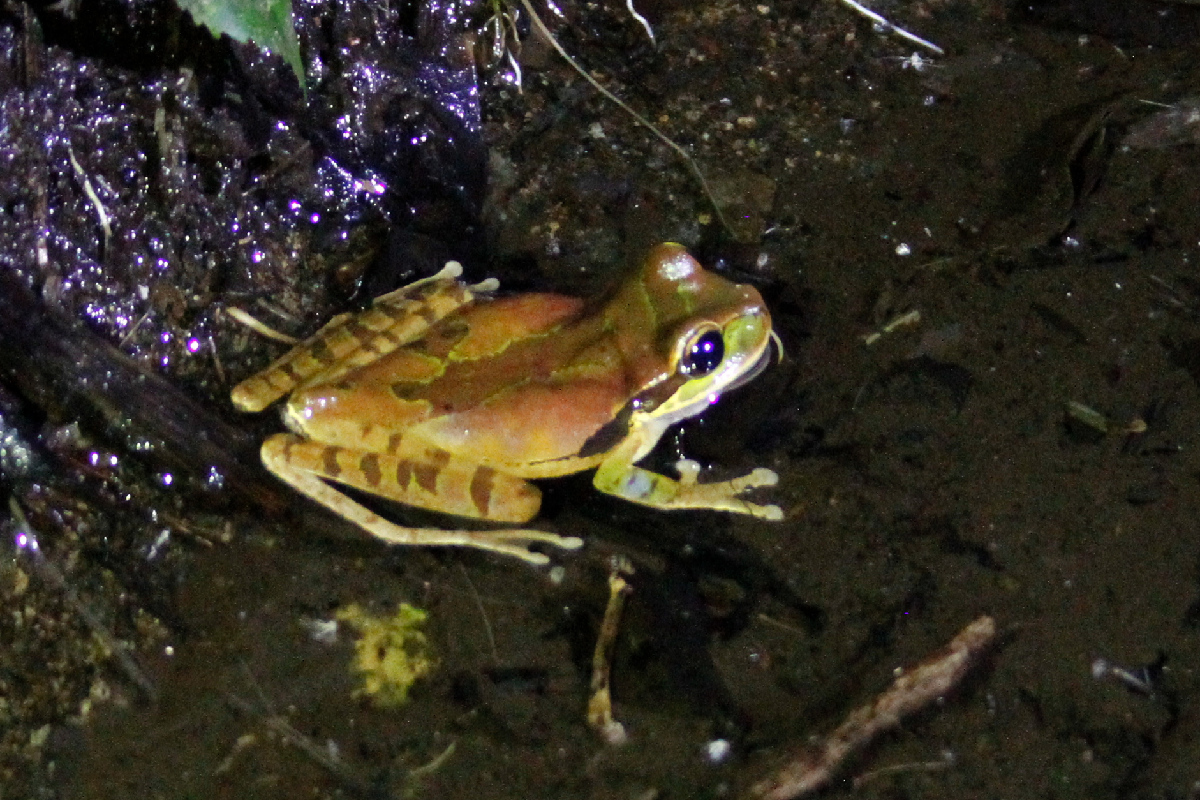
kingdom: Animalia
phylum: Chordata
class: Amphibia
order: Anura
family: Hylidae
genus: Smilisca
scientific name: Smilisca phaeota
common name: Central american smilisca
